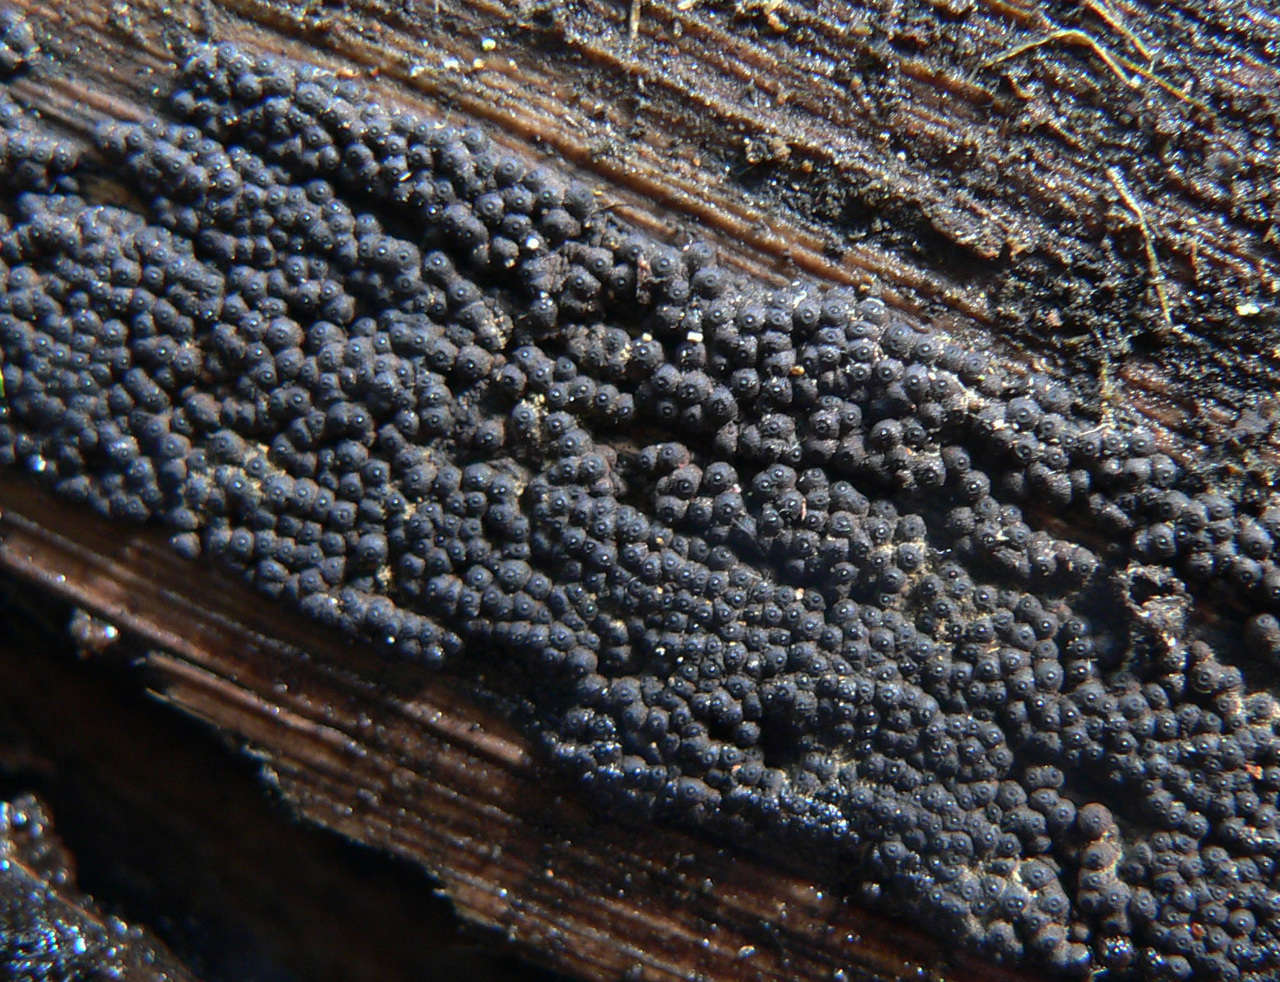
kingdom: Fungi
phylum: Ascomycota
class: Sordariomycetes
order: Xylariales
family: Hypoxylaceae
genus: Annulohypoxylon
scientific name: Annulohypoxylon bovei
